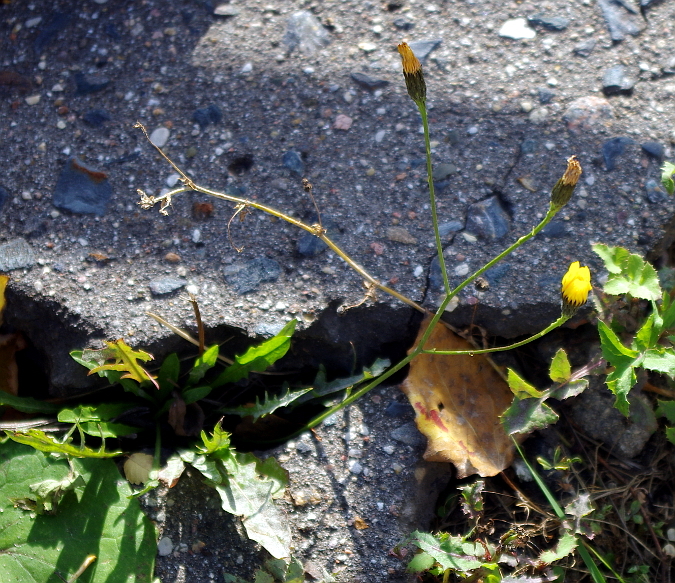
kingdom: Plantae
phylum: Tracheophyta
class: Magnoliopsida
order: Asterales
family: Asteraceae
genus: Scorzoneroides
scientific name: Scorzoneroides autumnalis
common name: Autumn hawkbit
